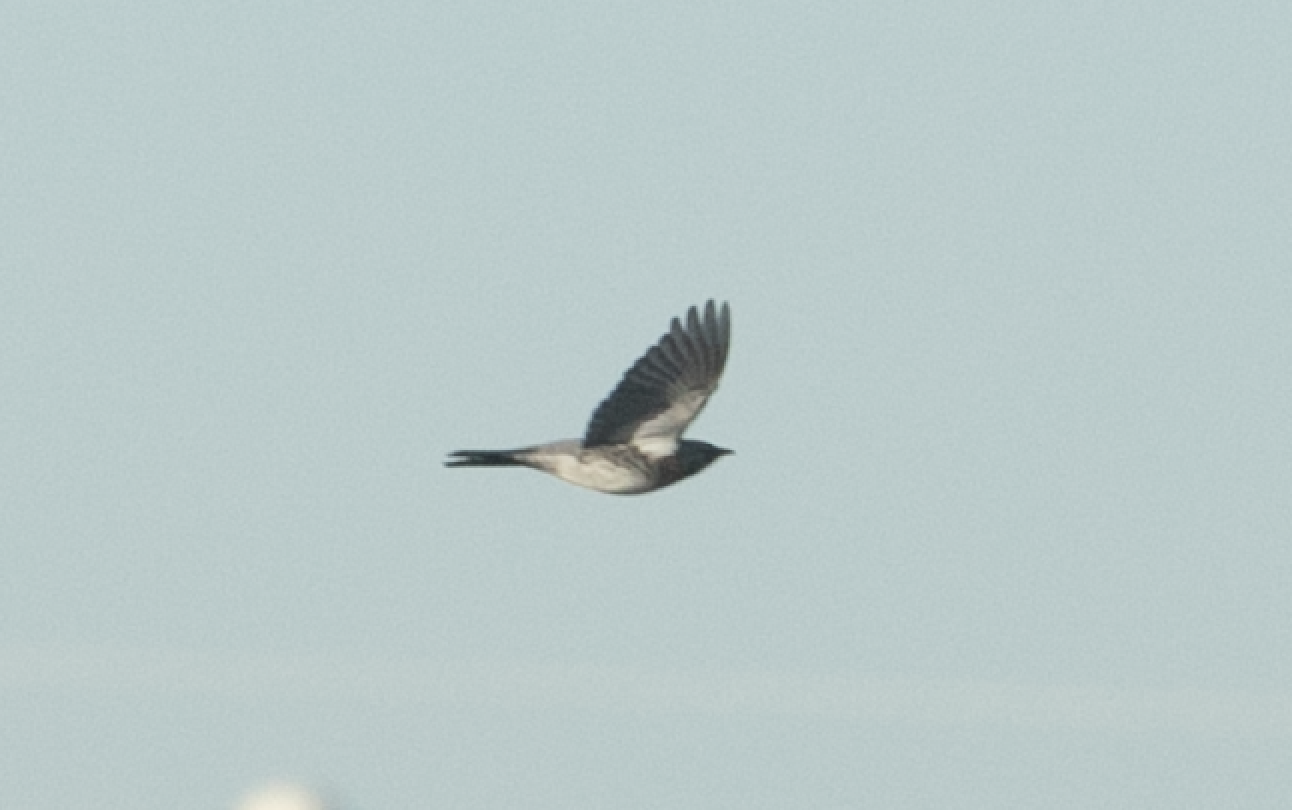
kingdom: Animalia
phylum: Chordata
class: Aves
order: Passeriformes
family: Turdidae
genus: Turdus
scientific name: Turdus pilaris
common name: Fieldfare
